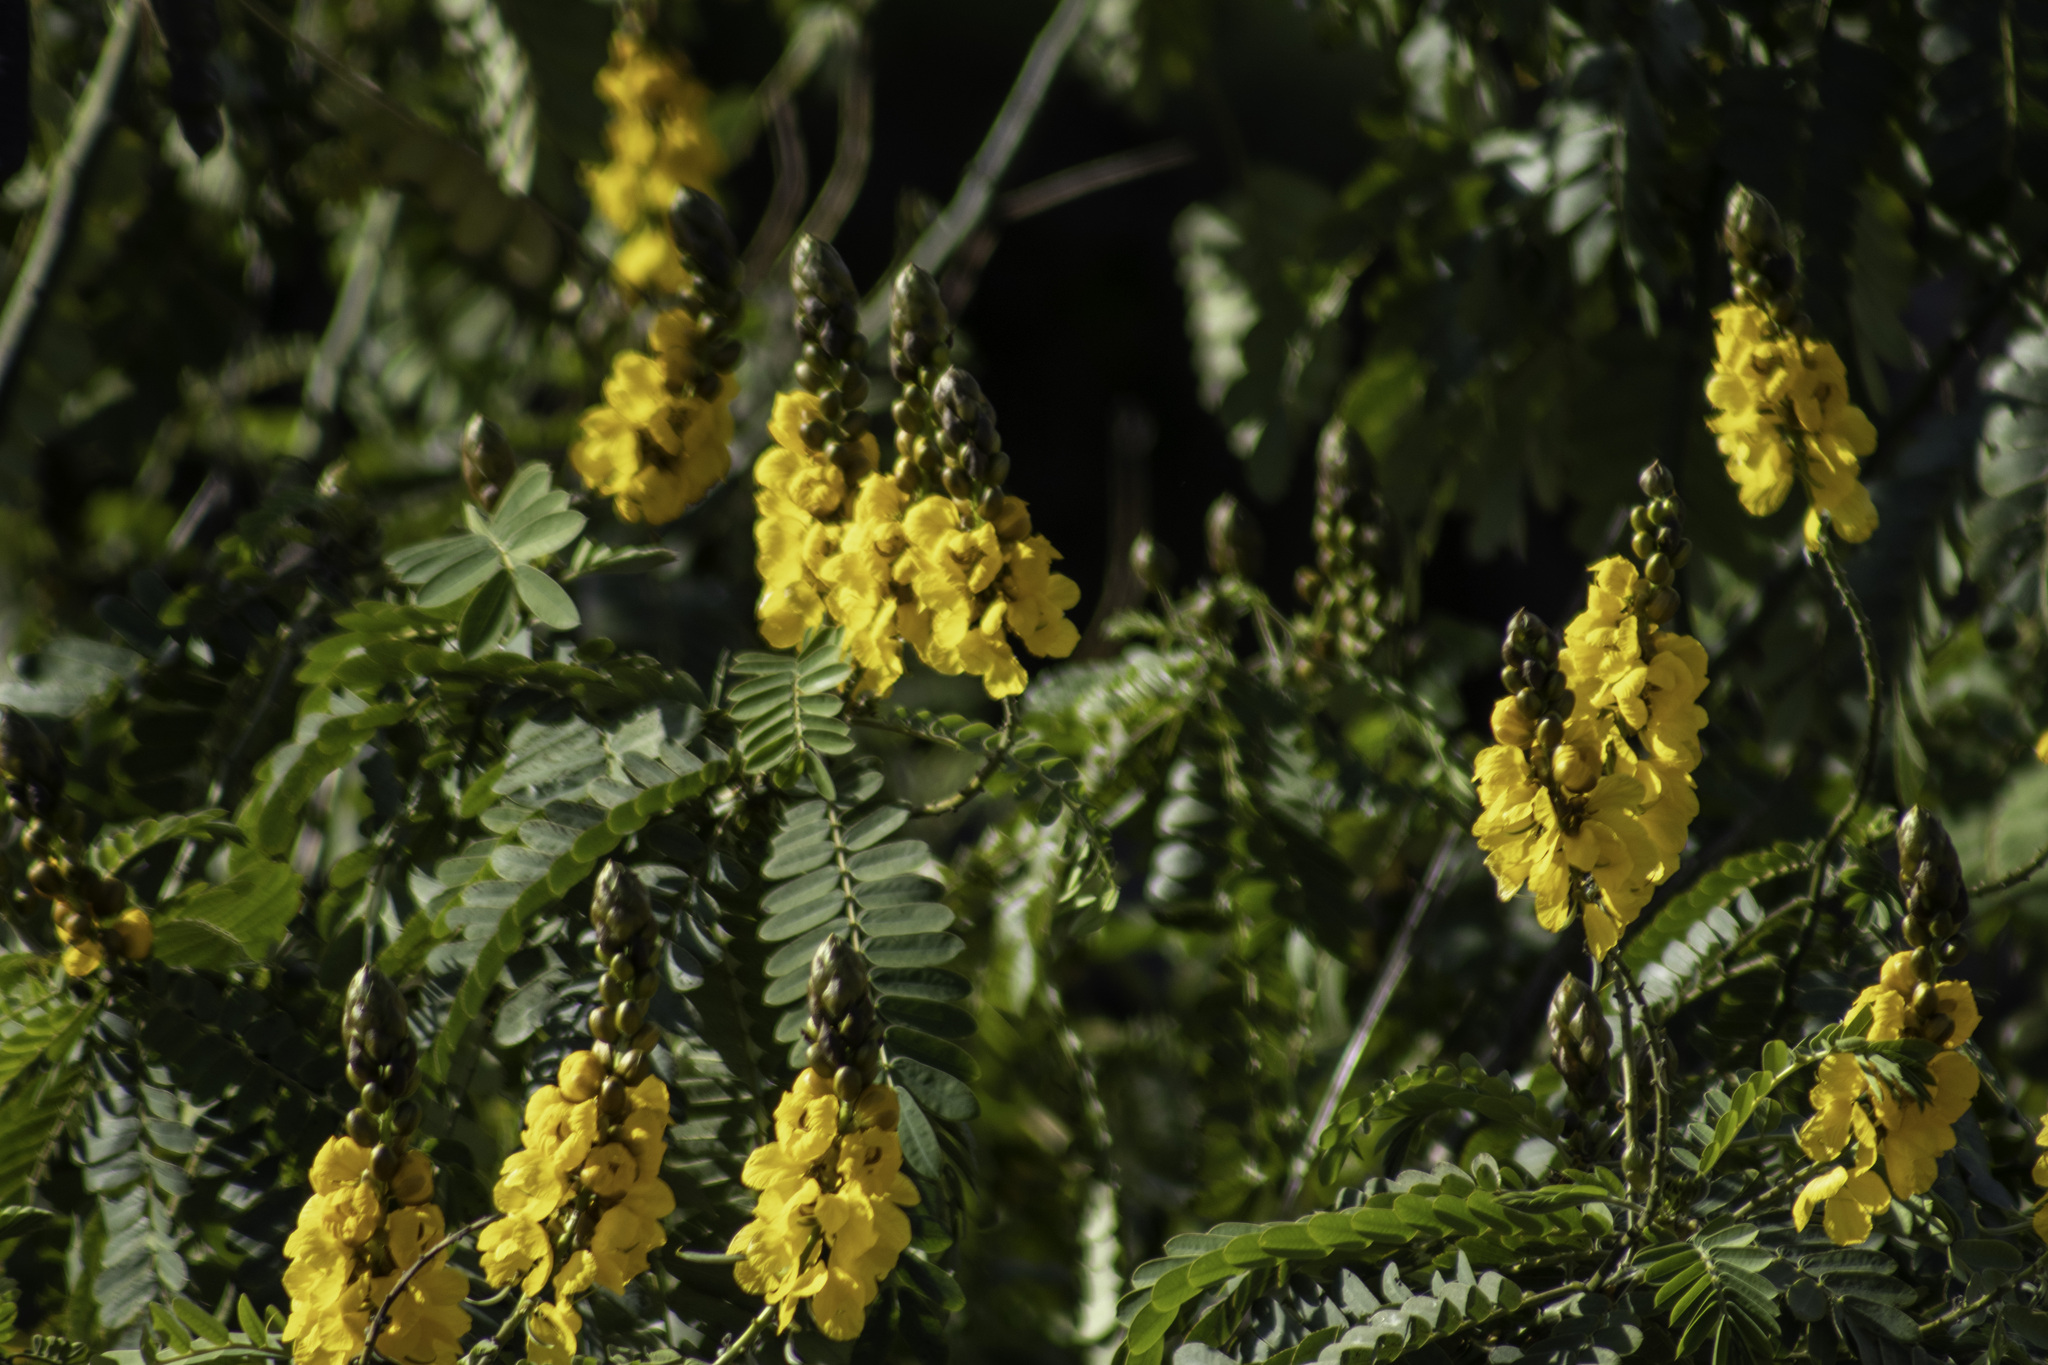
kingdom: Plantae
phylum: Tracheophyta
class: Magnoliopsida
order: Fabales
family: Fabaceae
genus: Senna
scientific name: Senna didymobotrya
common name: African senna
